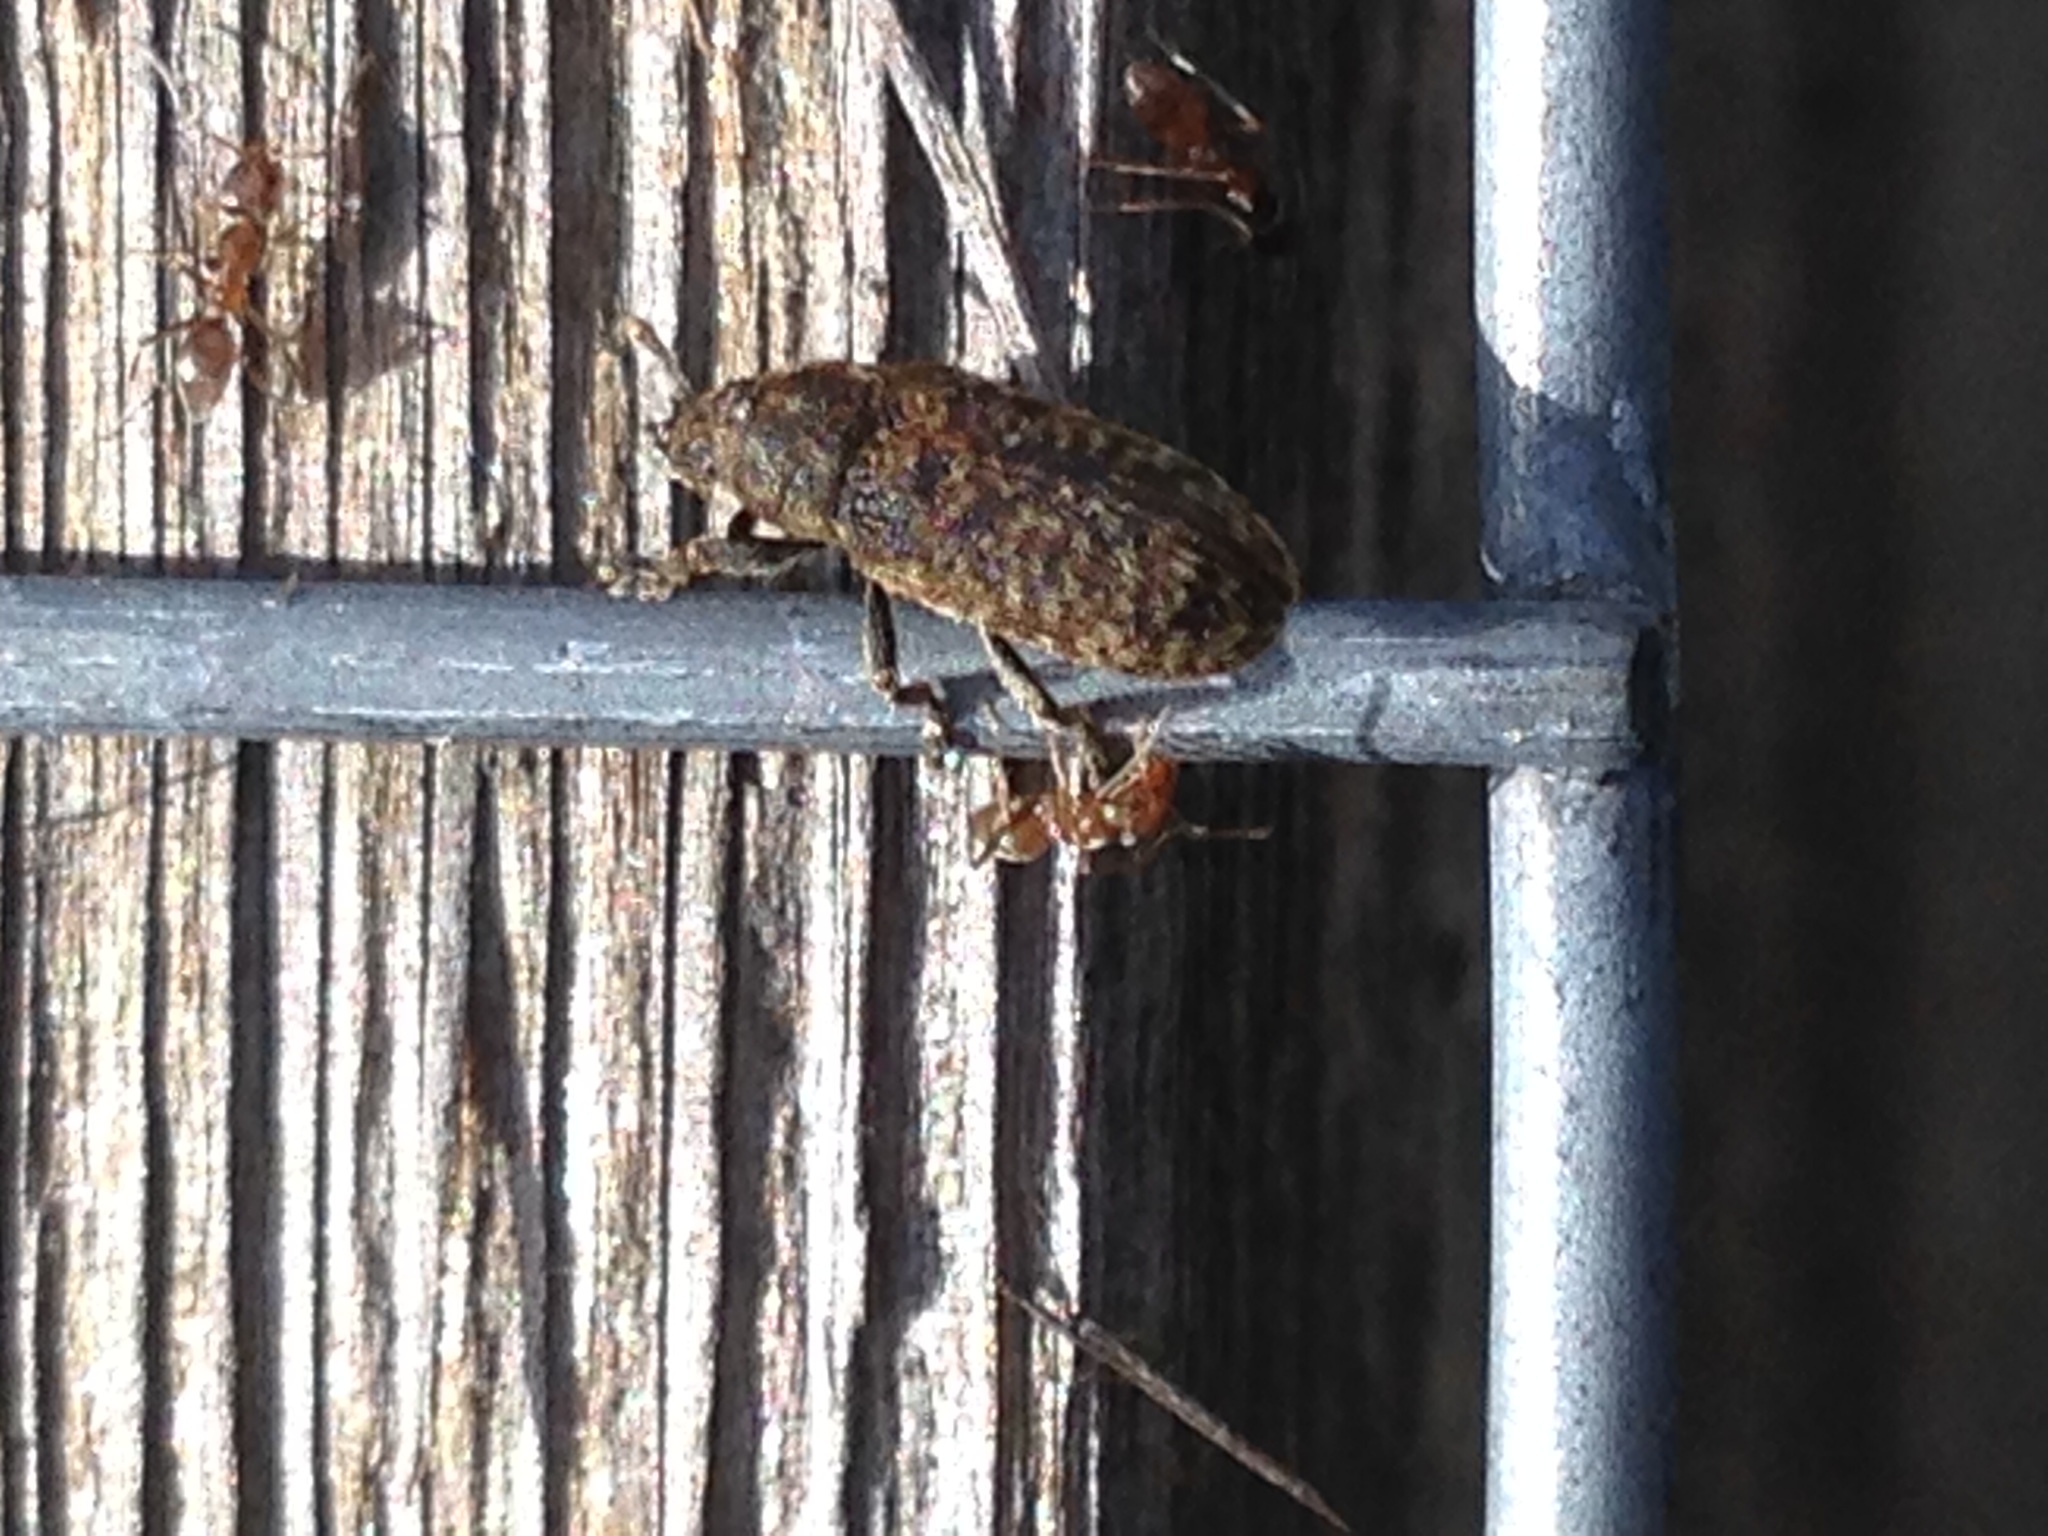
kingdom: Animalia
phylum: Arthropoda
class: Insecta
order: Coleoptera
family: Curculionidae
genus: Rhinocyllus
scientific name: Rhinocyllus conicus
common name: Weevil
